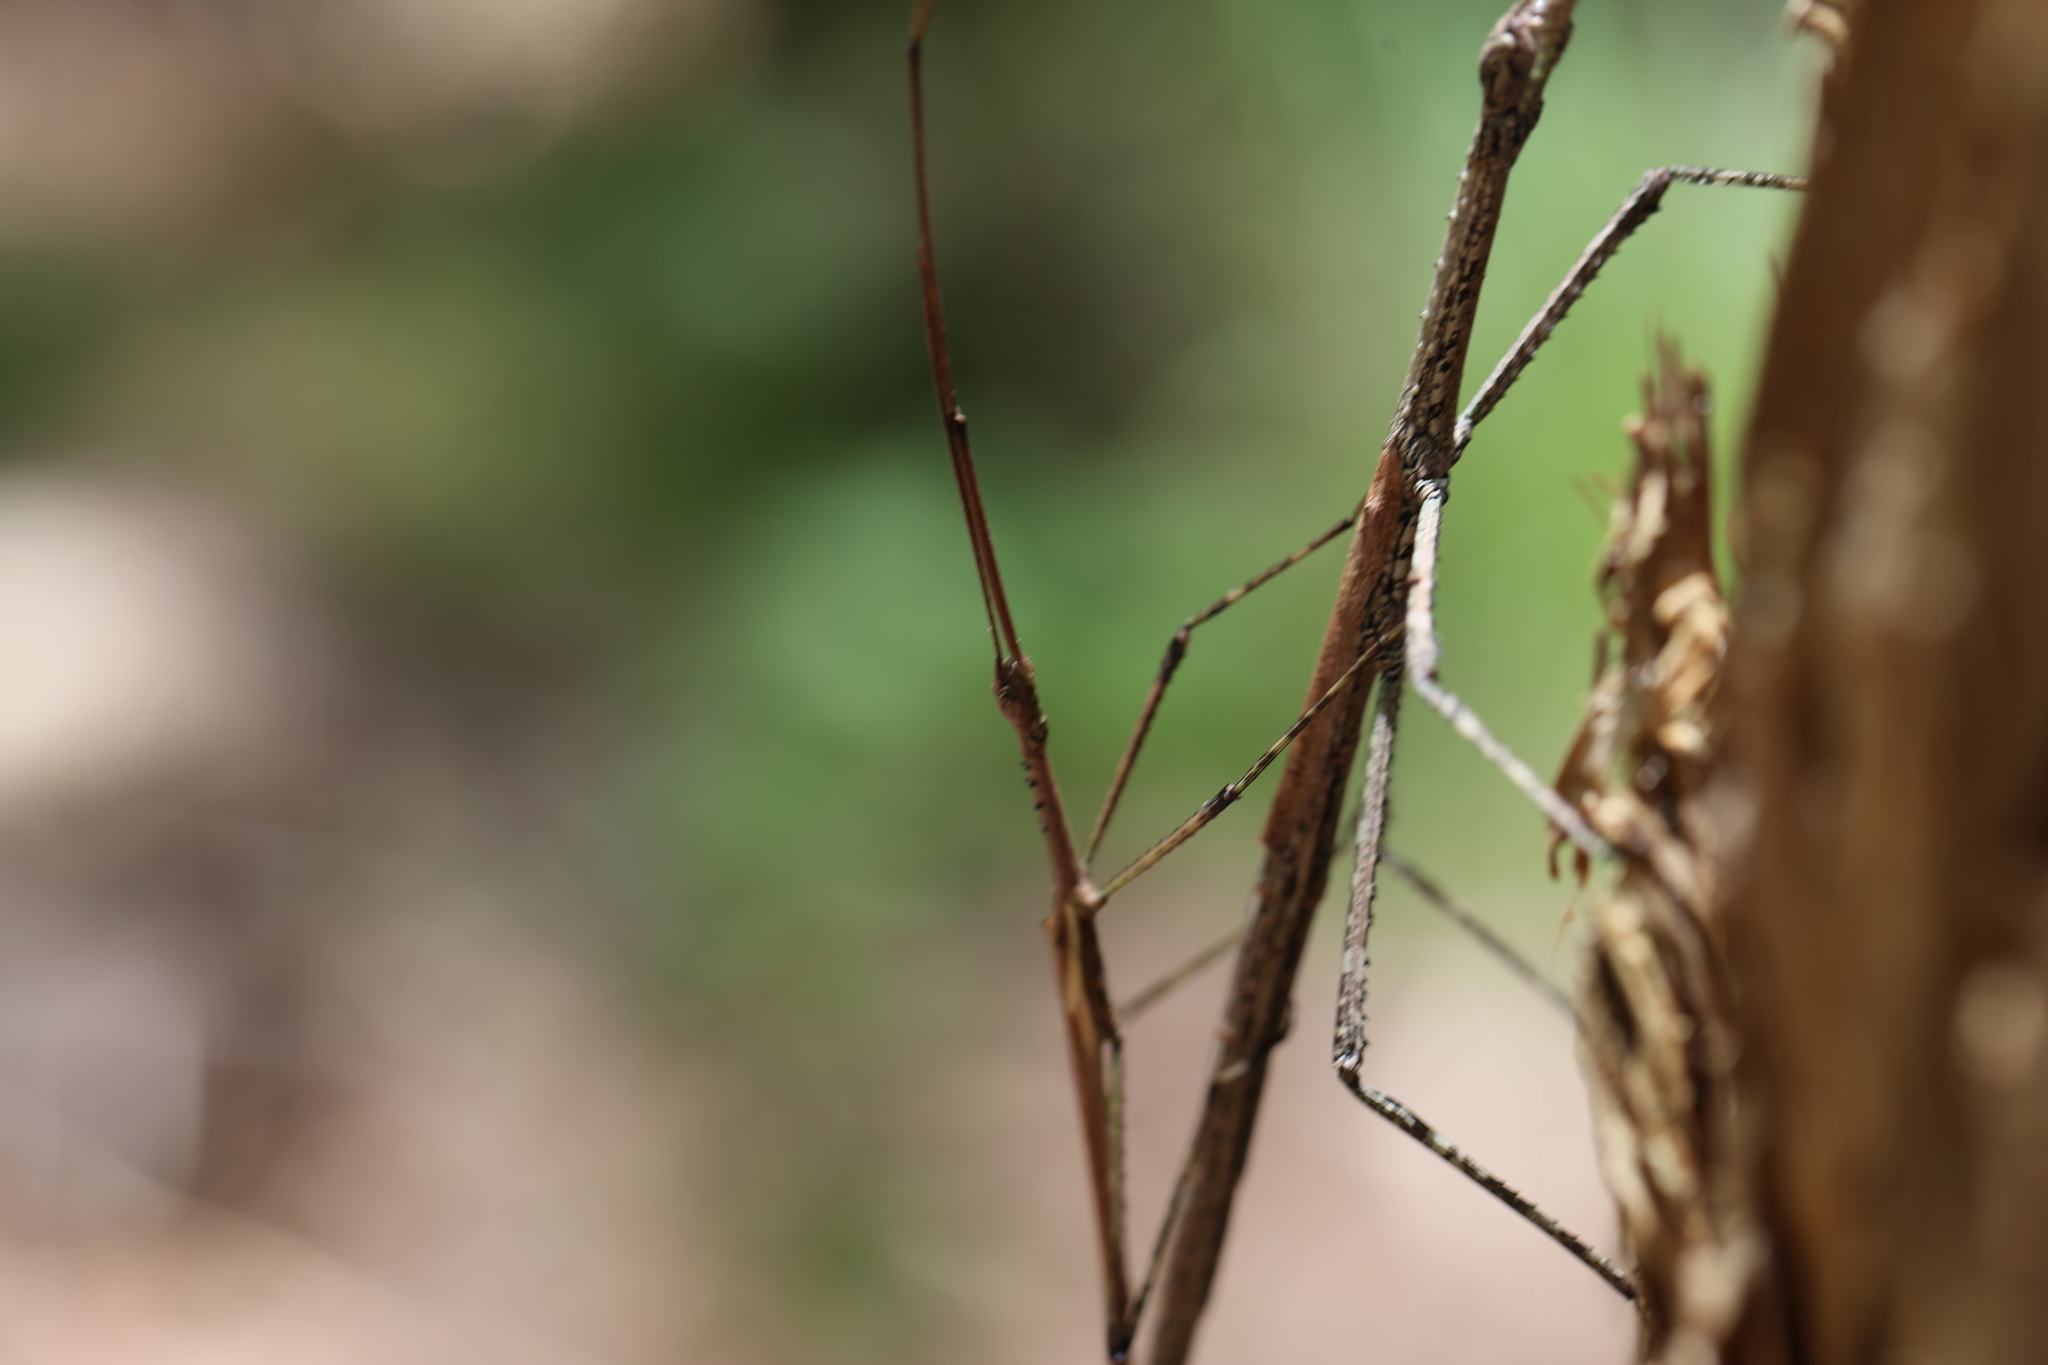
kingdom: Animalia
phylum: Arthropoda
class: Insecta
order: Phasmida
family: Phasmatidae
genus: Anchiale
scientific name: Anchiale austrotessulata
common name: Tessellated stick-insect
